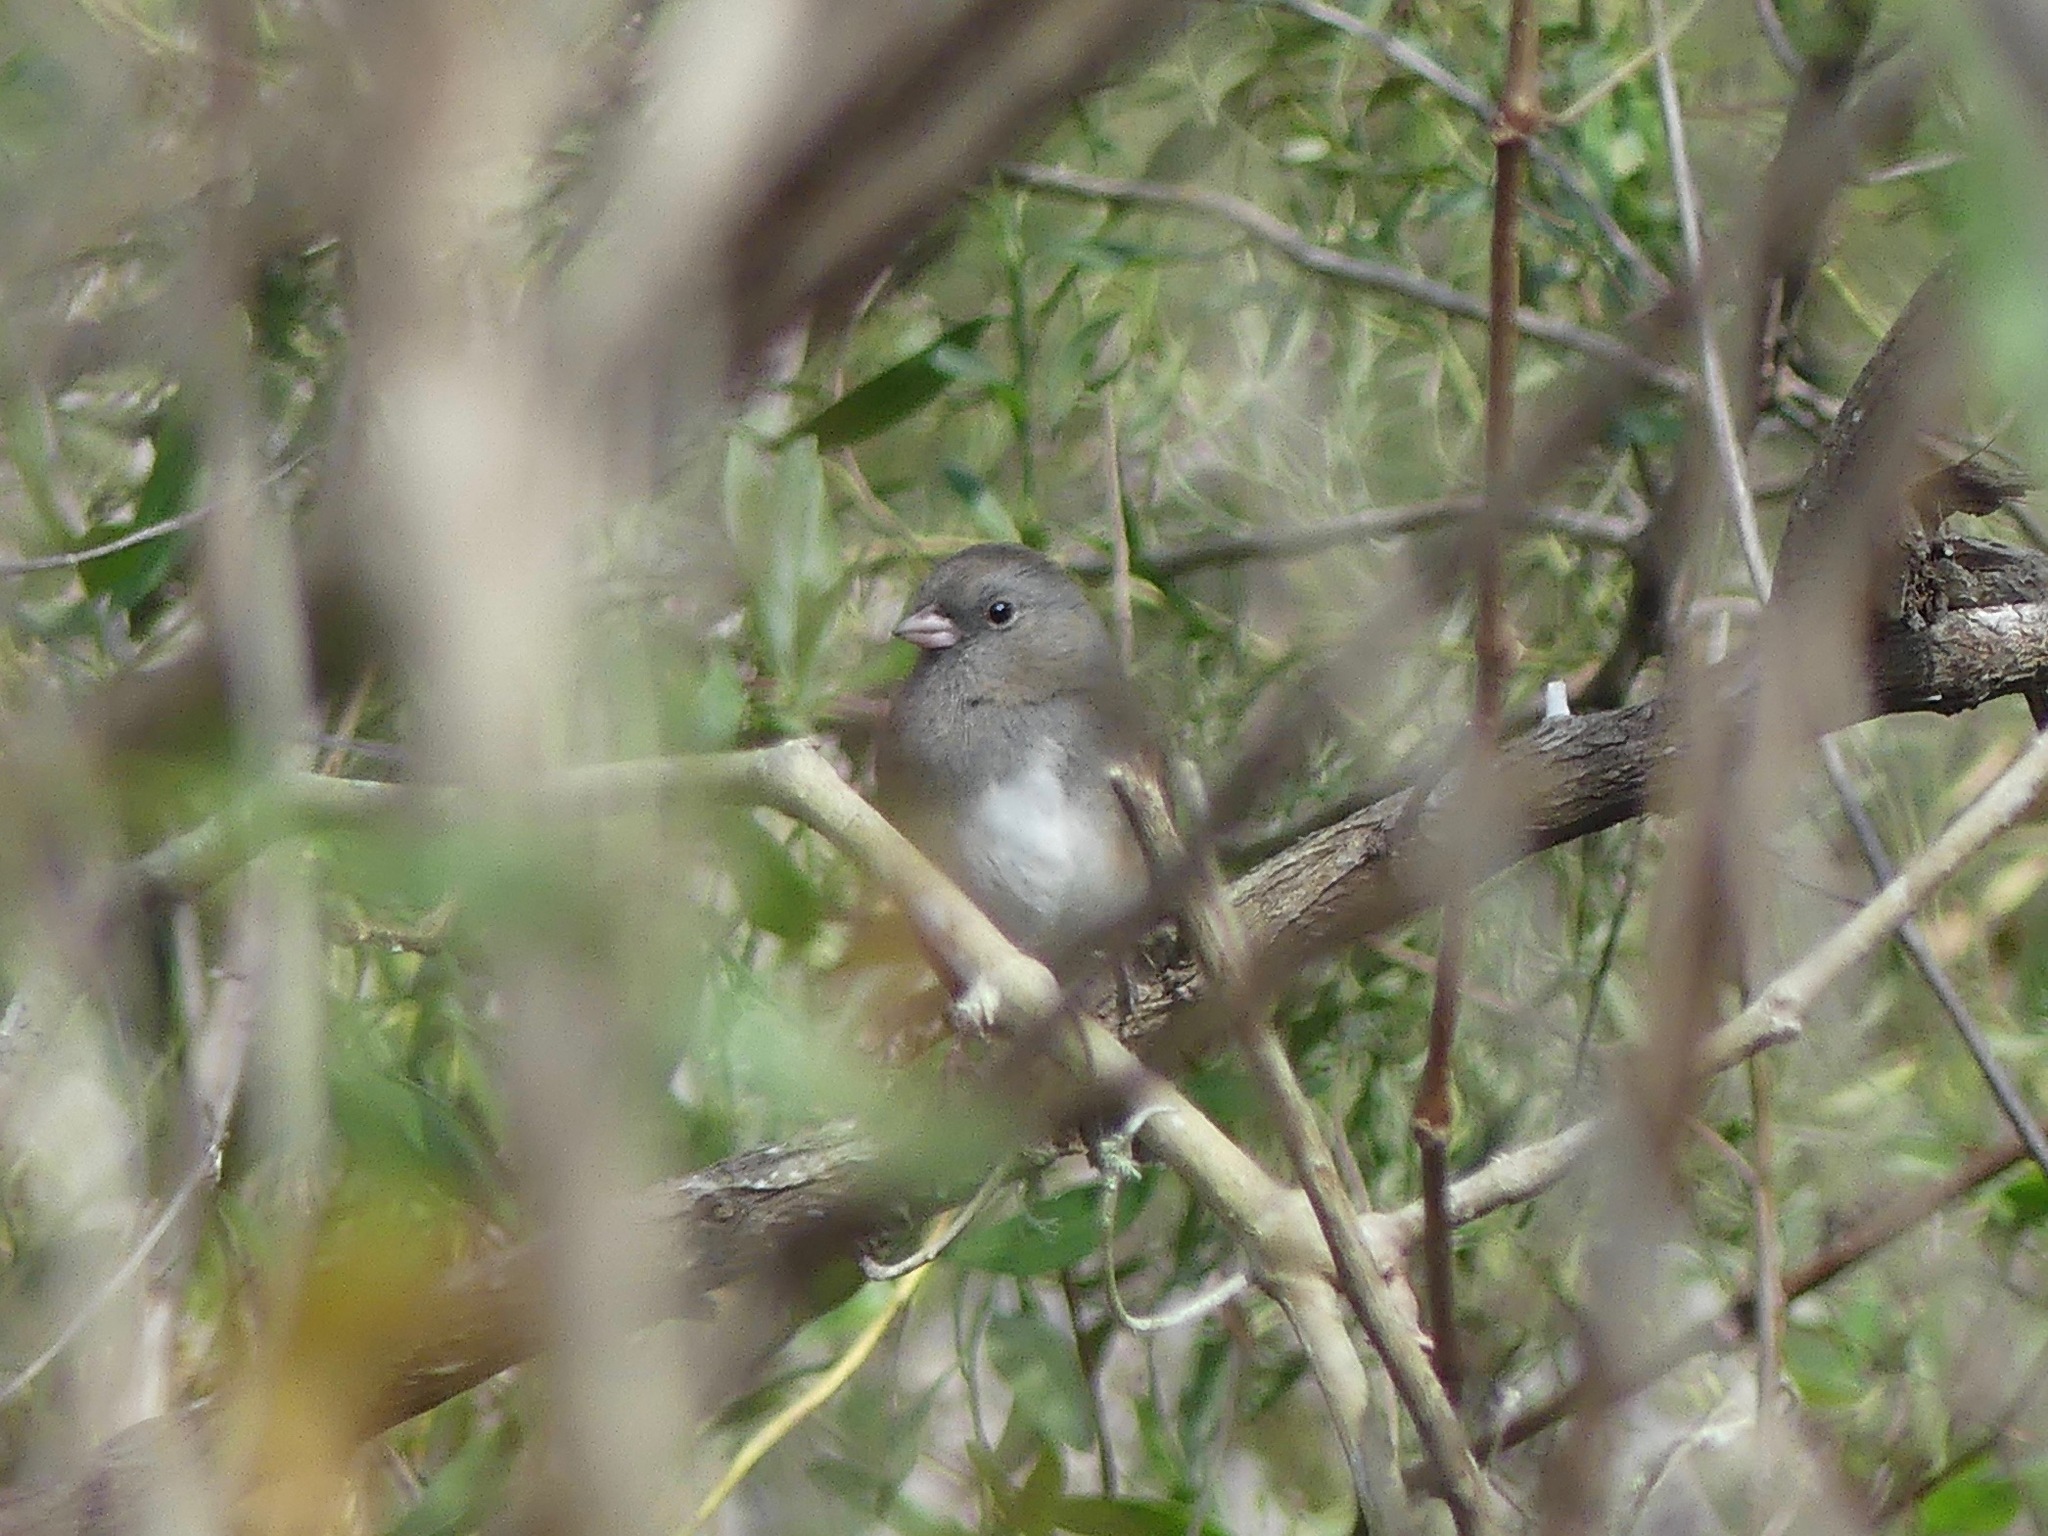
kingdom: Animalia
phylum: Chordata
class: Aves
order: Passeriformes
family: Passerellidae
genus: Junco
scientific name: Junco hyemalis
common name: Dark-eyed junco
